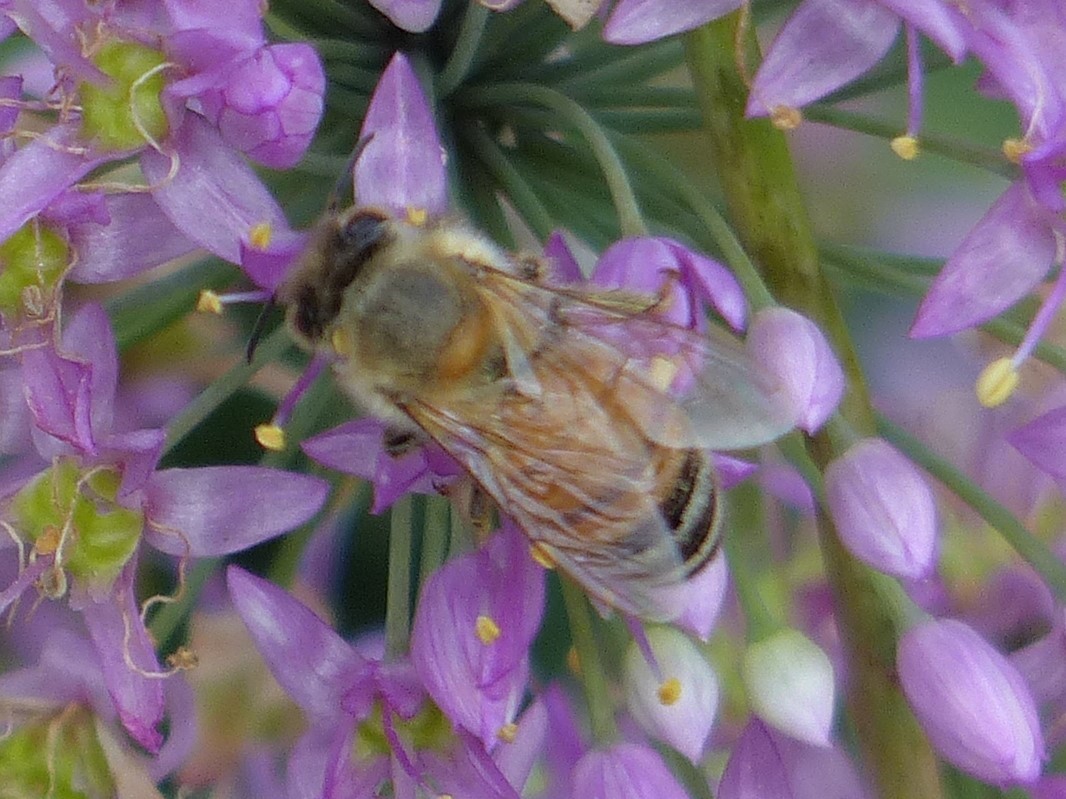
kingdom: Animalia
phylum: Arthropoda
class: Insecta
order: Hymenoptera
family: Apidae
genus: Apis
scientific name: Apis mellifera
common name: Honey bee
